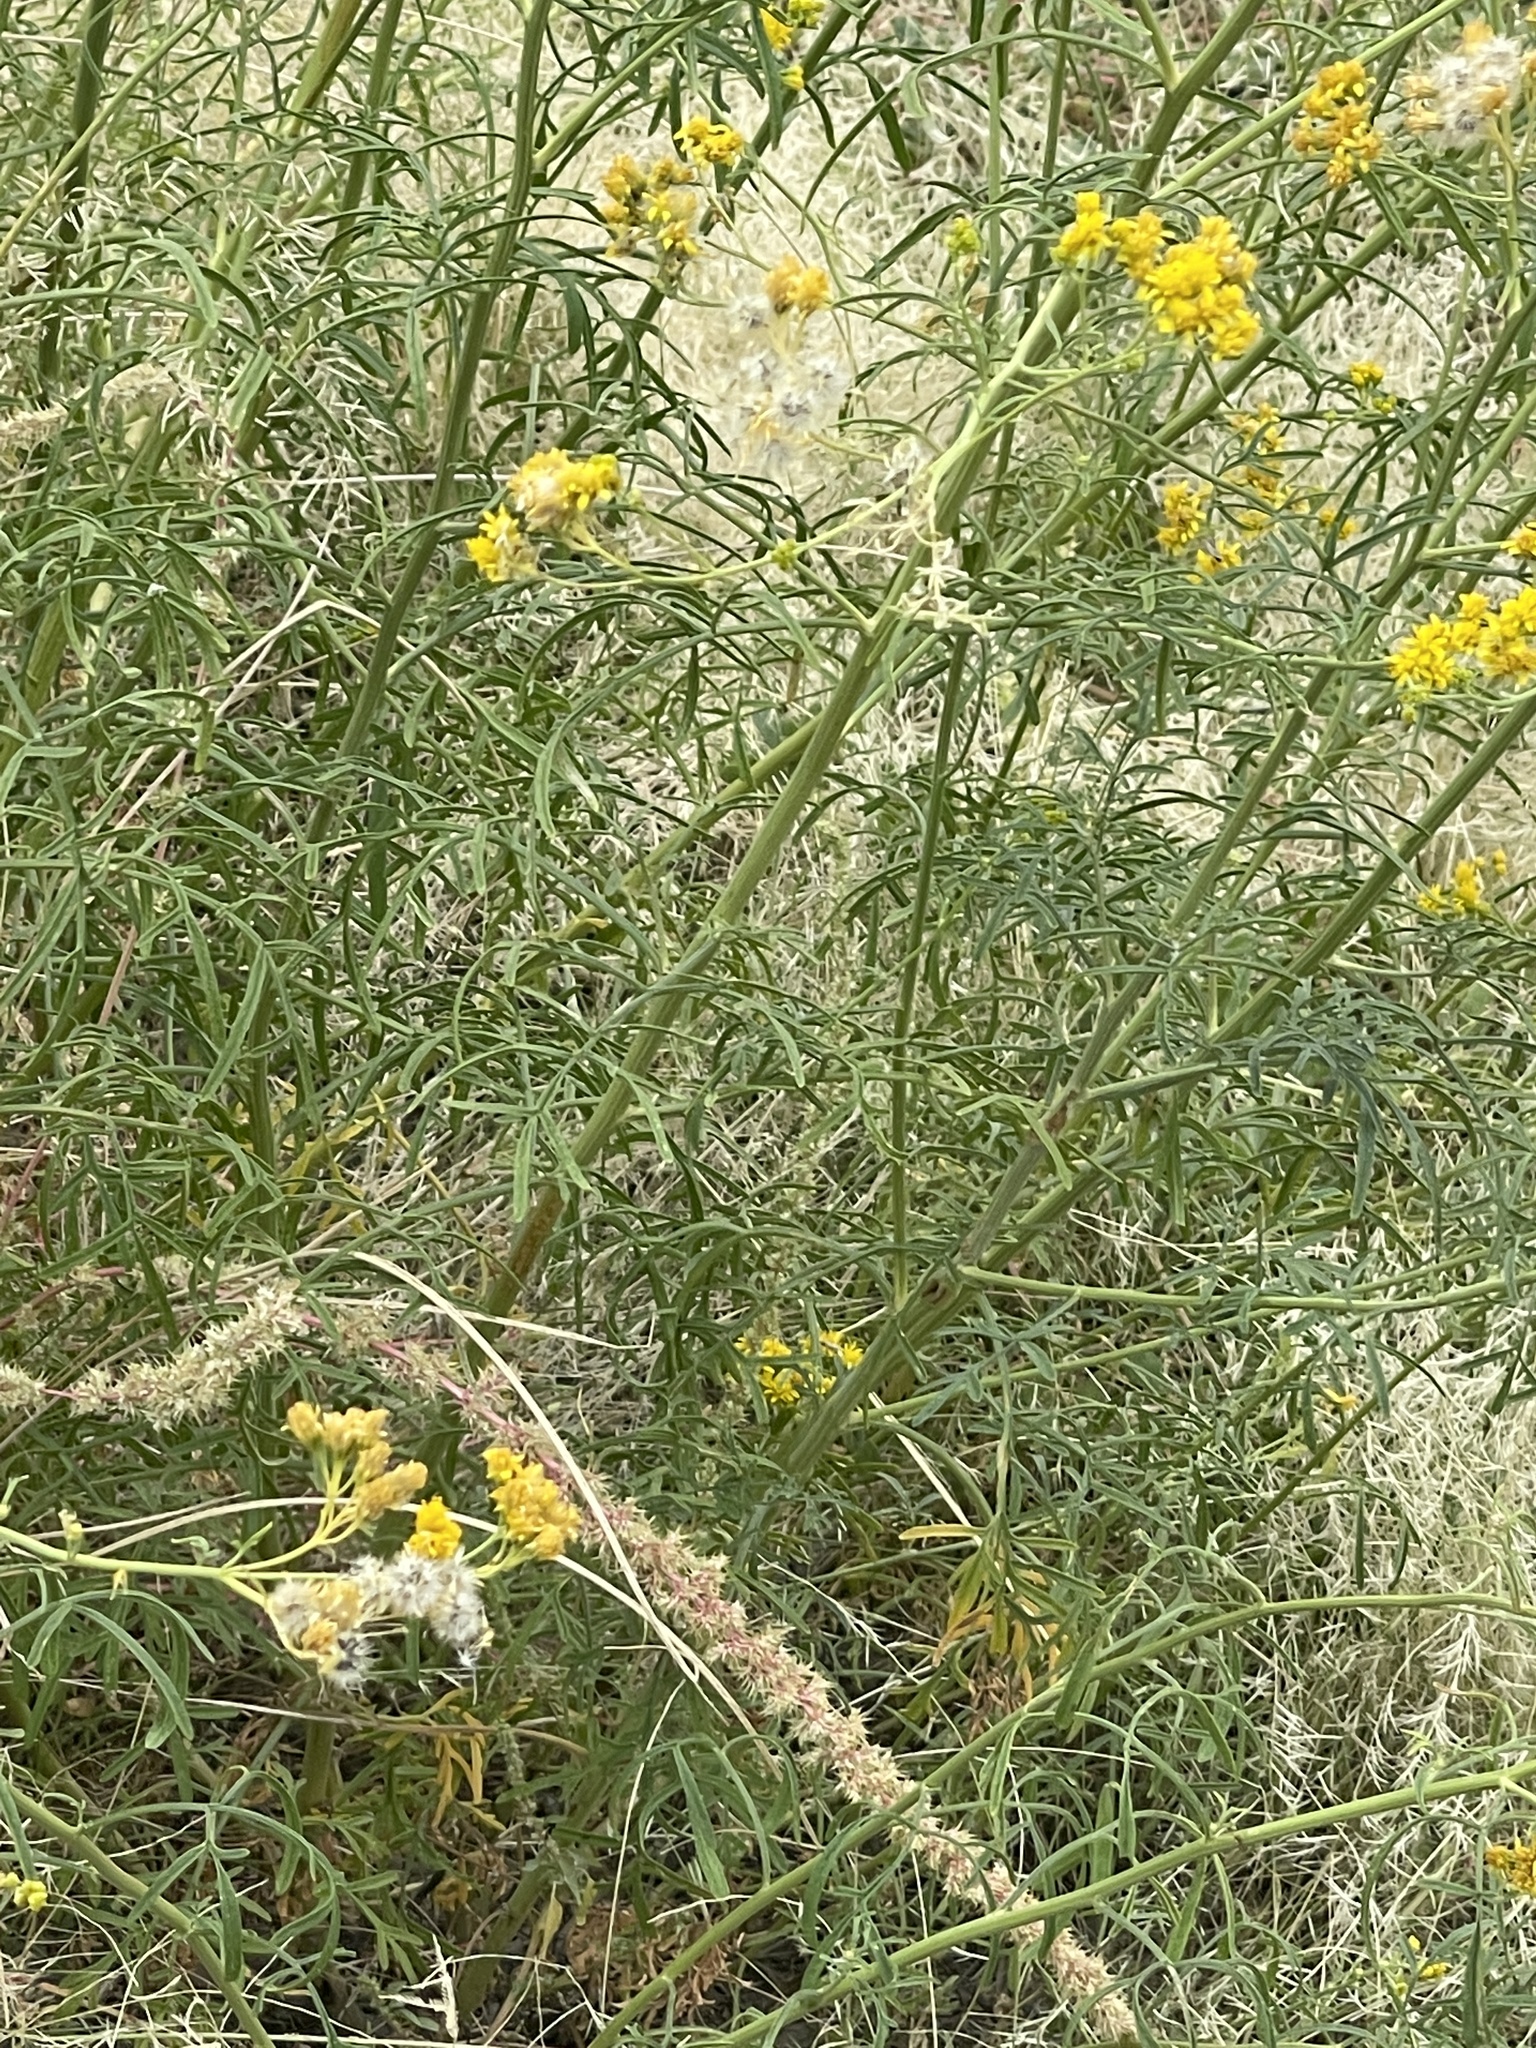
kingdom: Plantae
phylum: Tracheophyta
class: Magnoliopsida
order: Asterales
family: Asteraceae
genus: Hymenothrix
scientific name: Hymenothrix wislizeni
